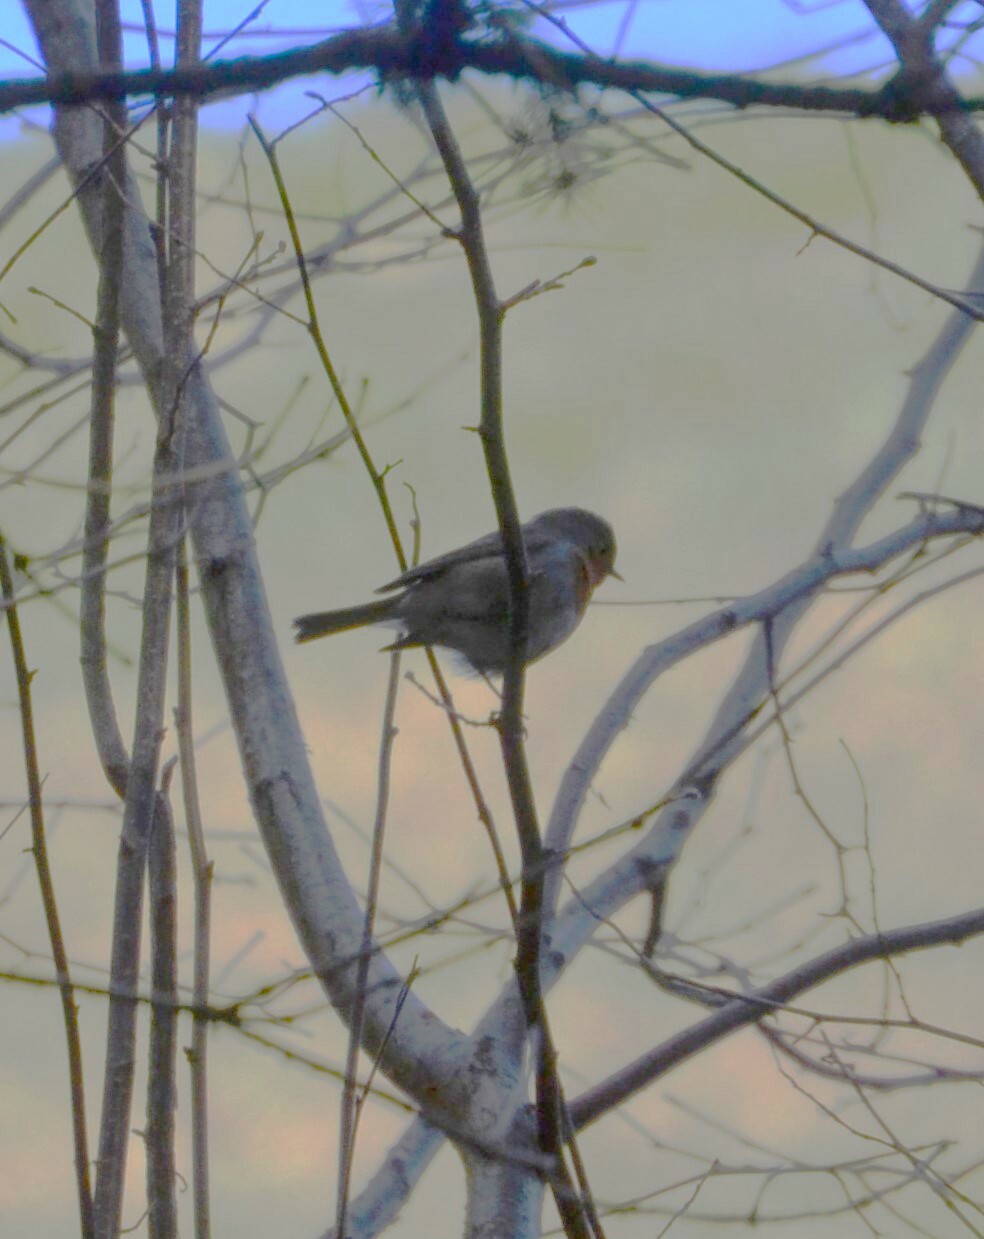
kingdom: Animalia
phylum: Chordata
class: Aves
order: Passeriformes
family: Muscicapidae
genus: Erithacus
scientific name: Erithacus rubecula
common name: European robin
